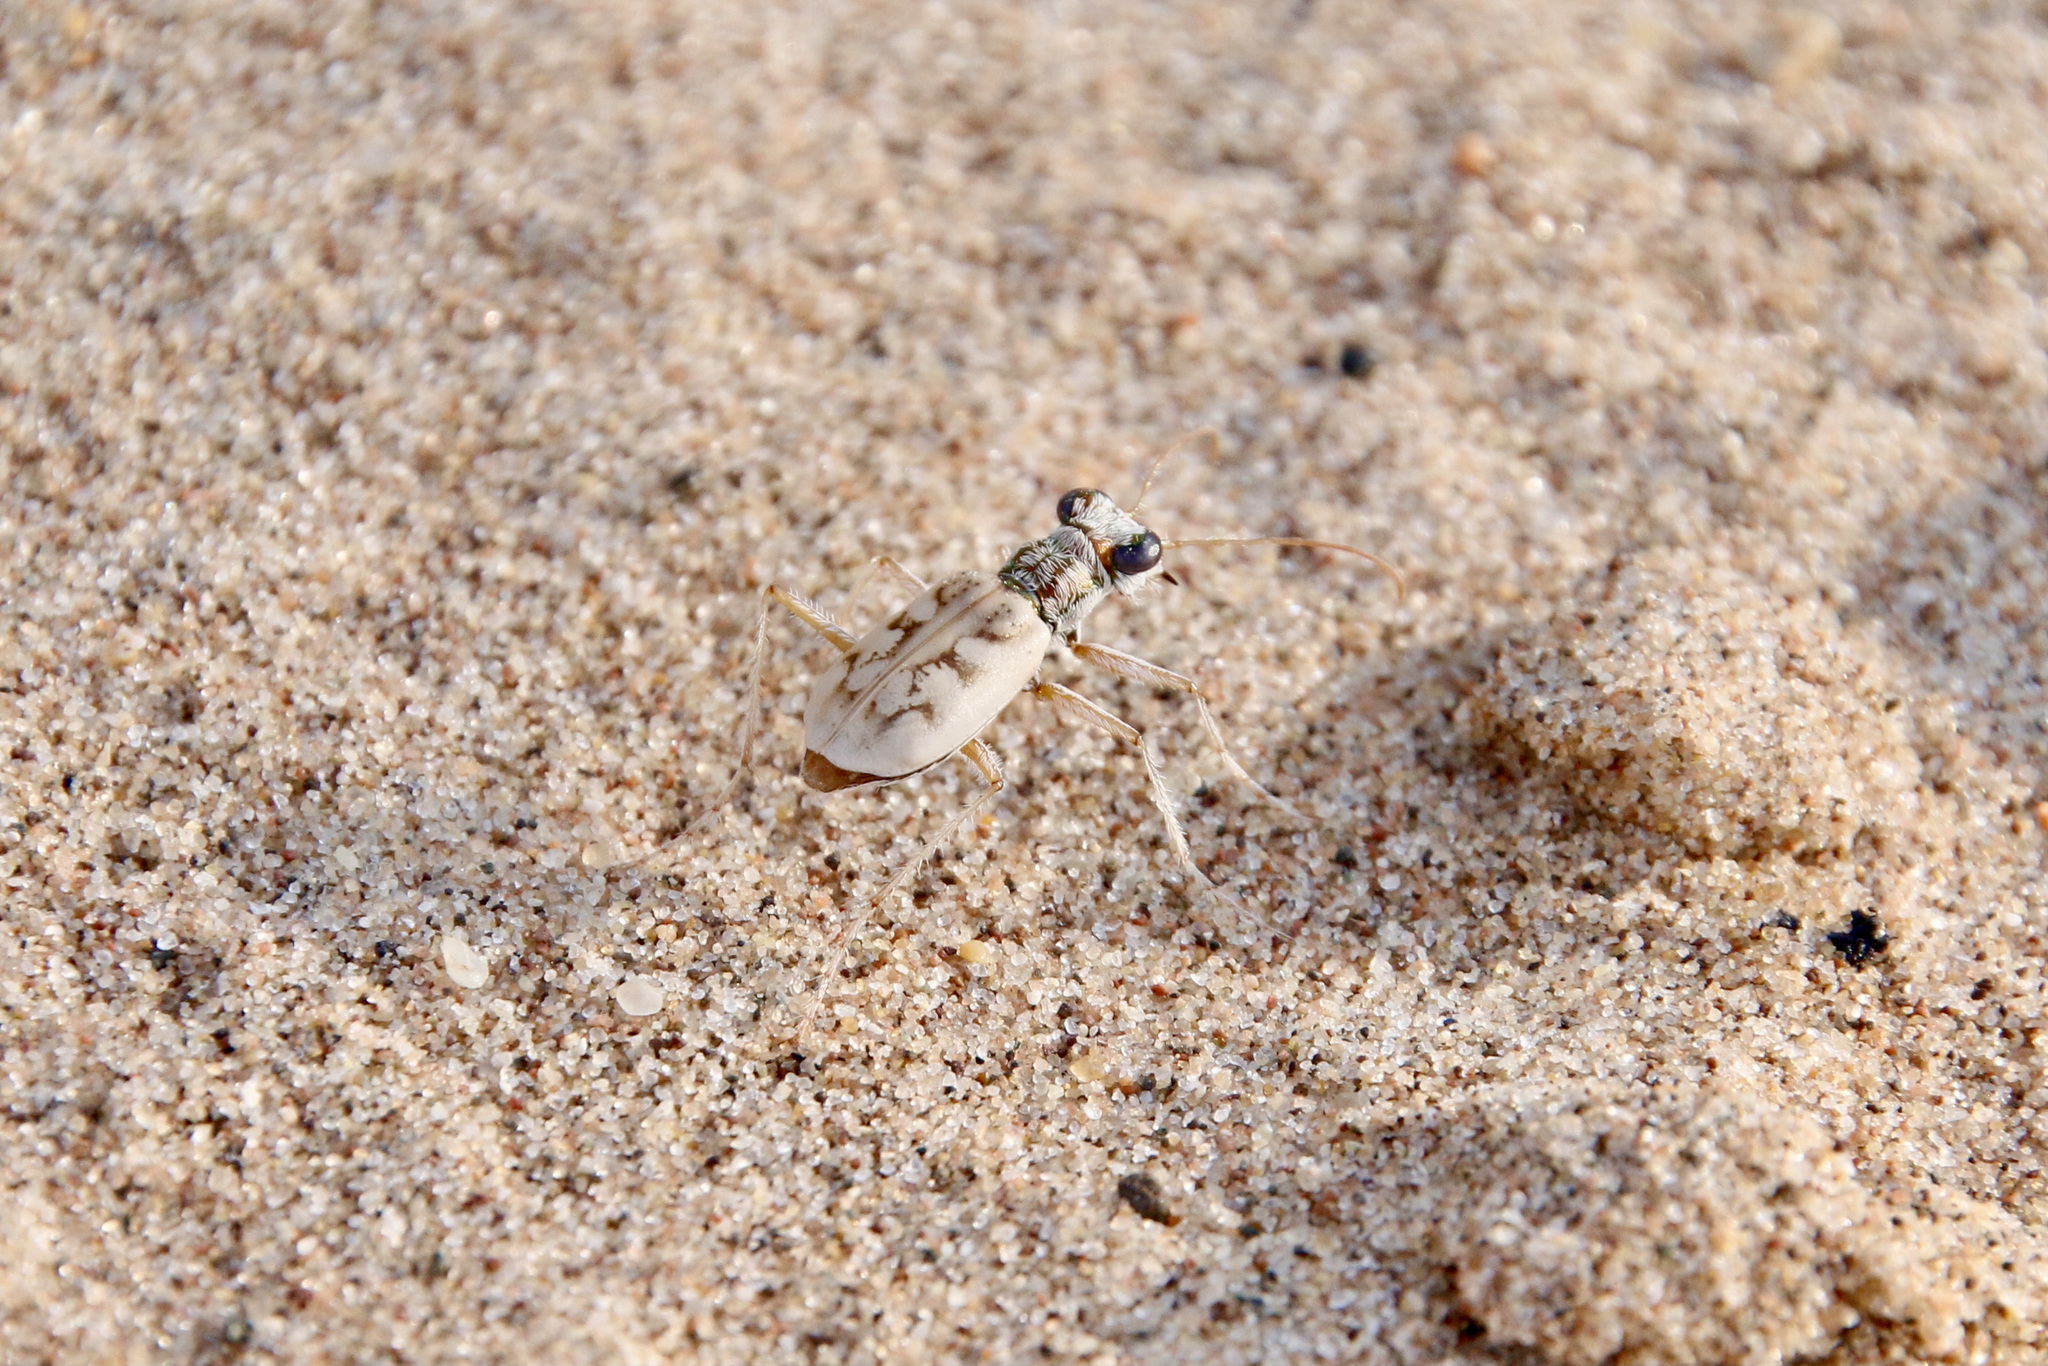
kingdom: Animalia
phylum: Arthropoda
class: Insecta
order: Coleoptera
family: Carabidae
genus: Ellipsoptera
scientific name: Ellipsoptera lepida
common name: Ghost tiger beetle
